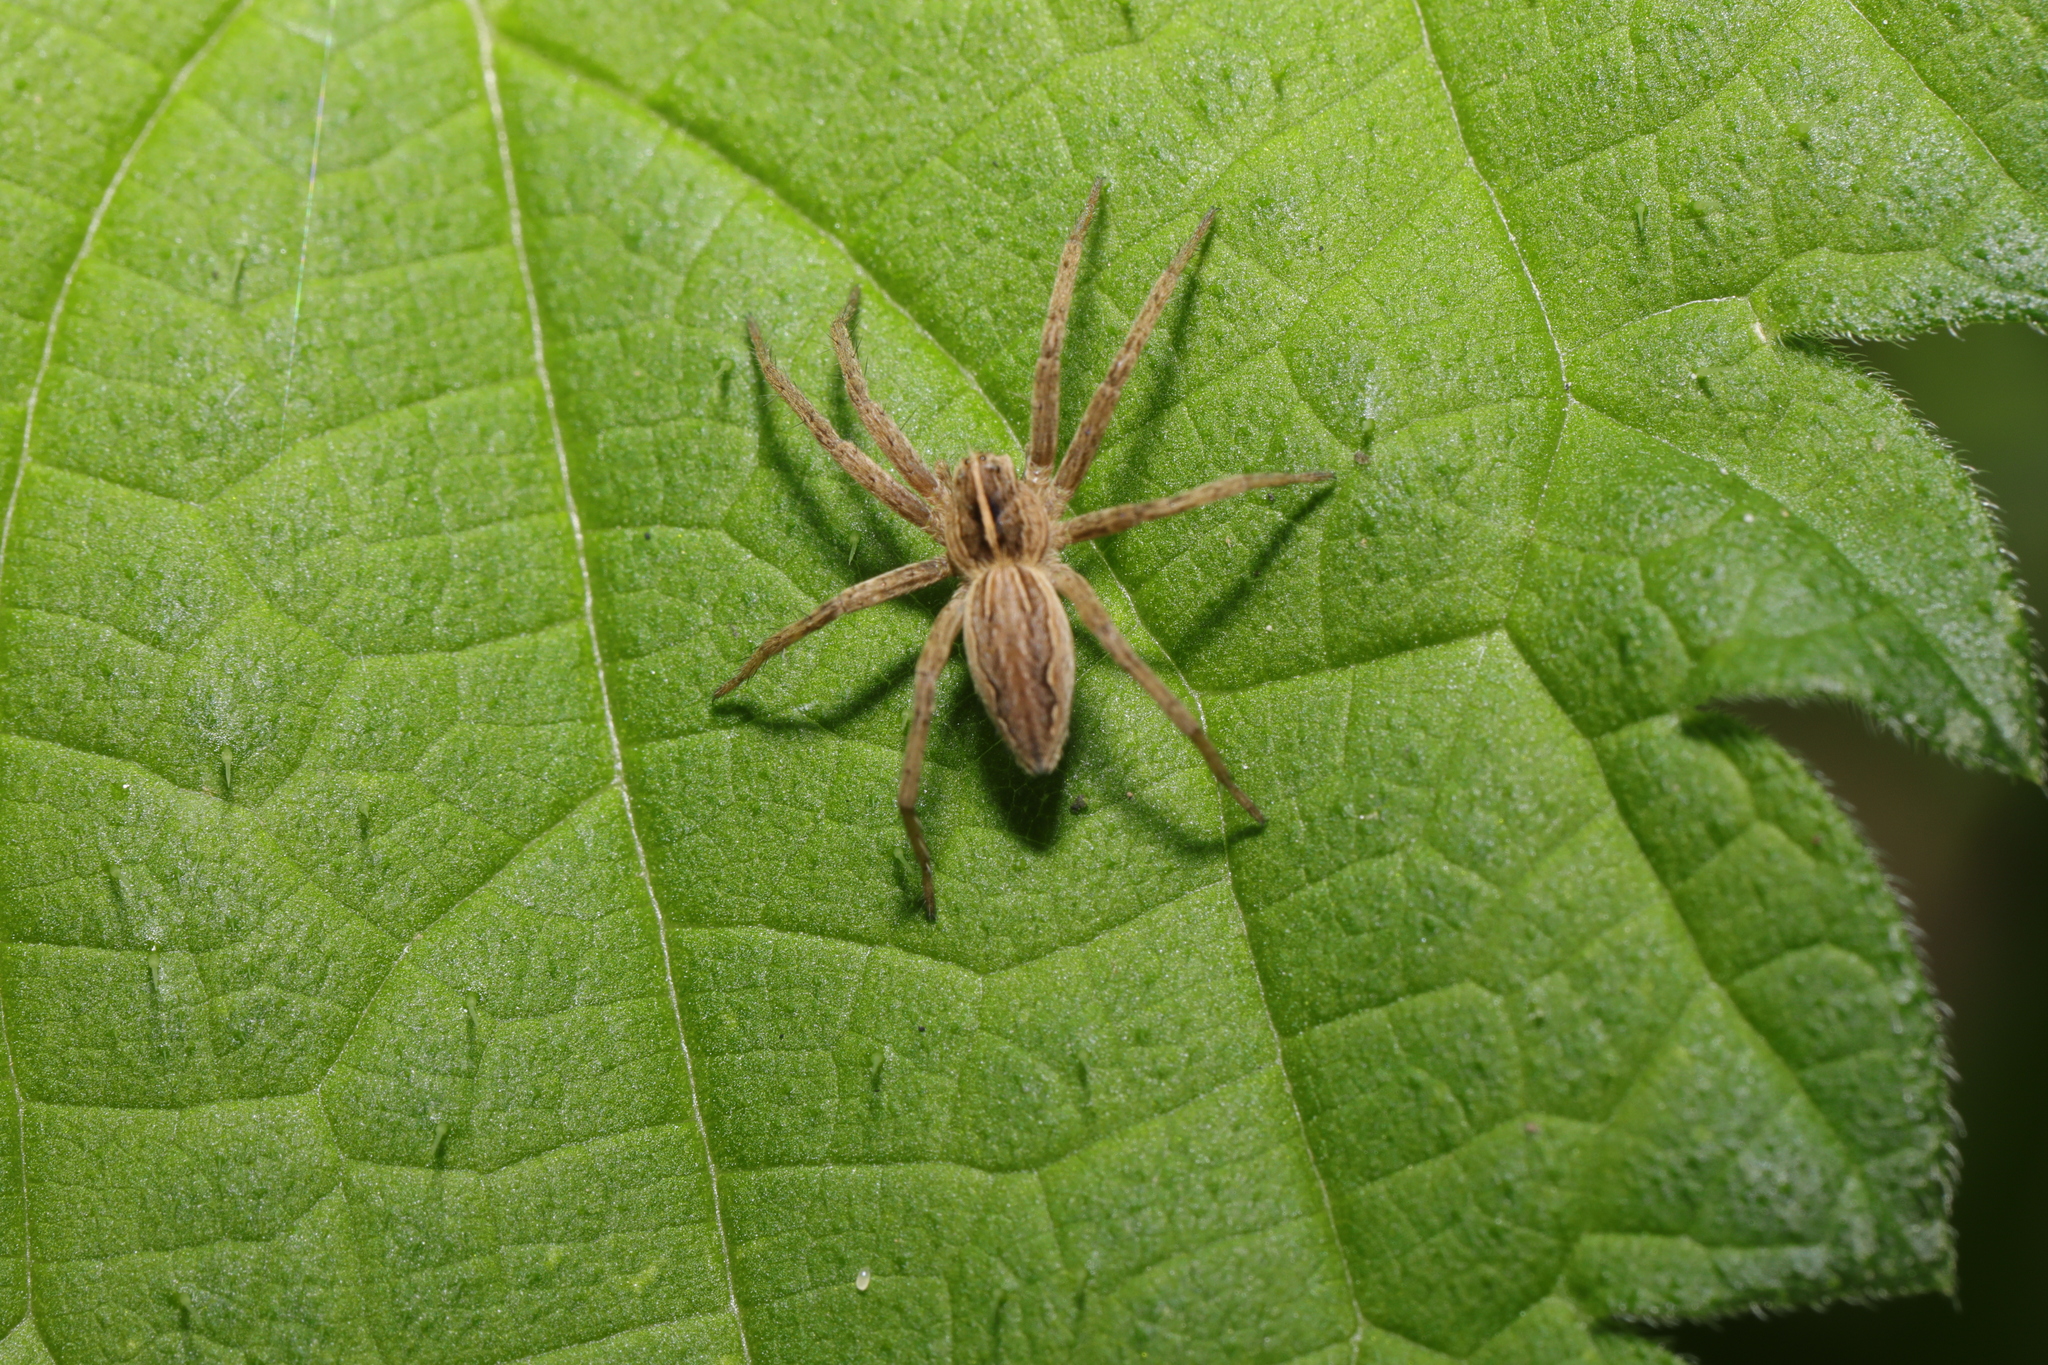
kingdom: Animalia
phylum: Arthropoda
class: Arachnida
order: Araneae
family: Pisauridae
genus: Pisaura
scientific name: Pisaura mirabilis
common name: Tent spider
